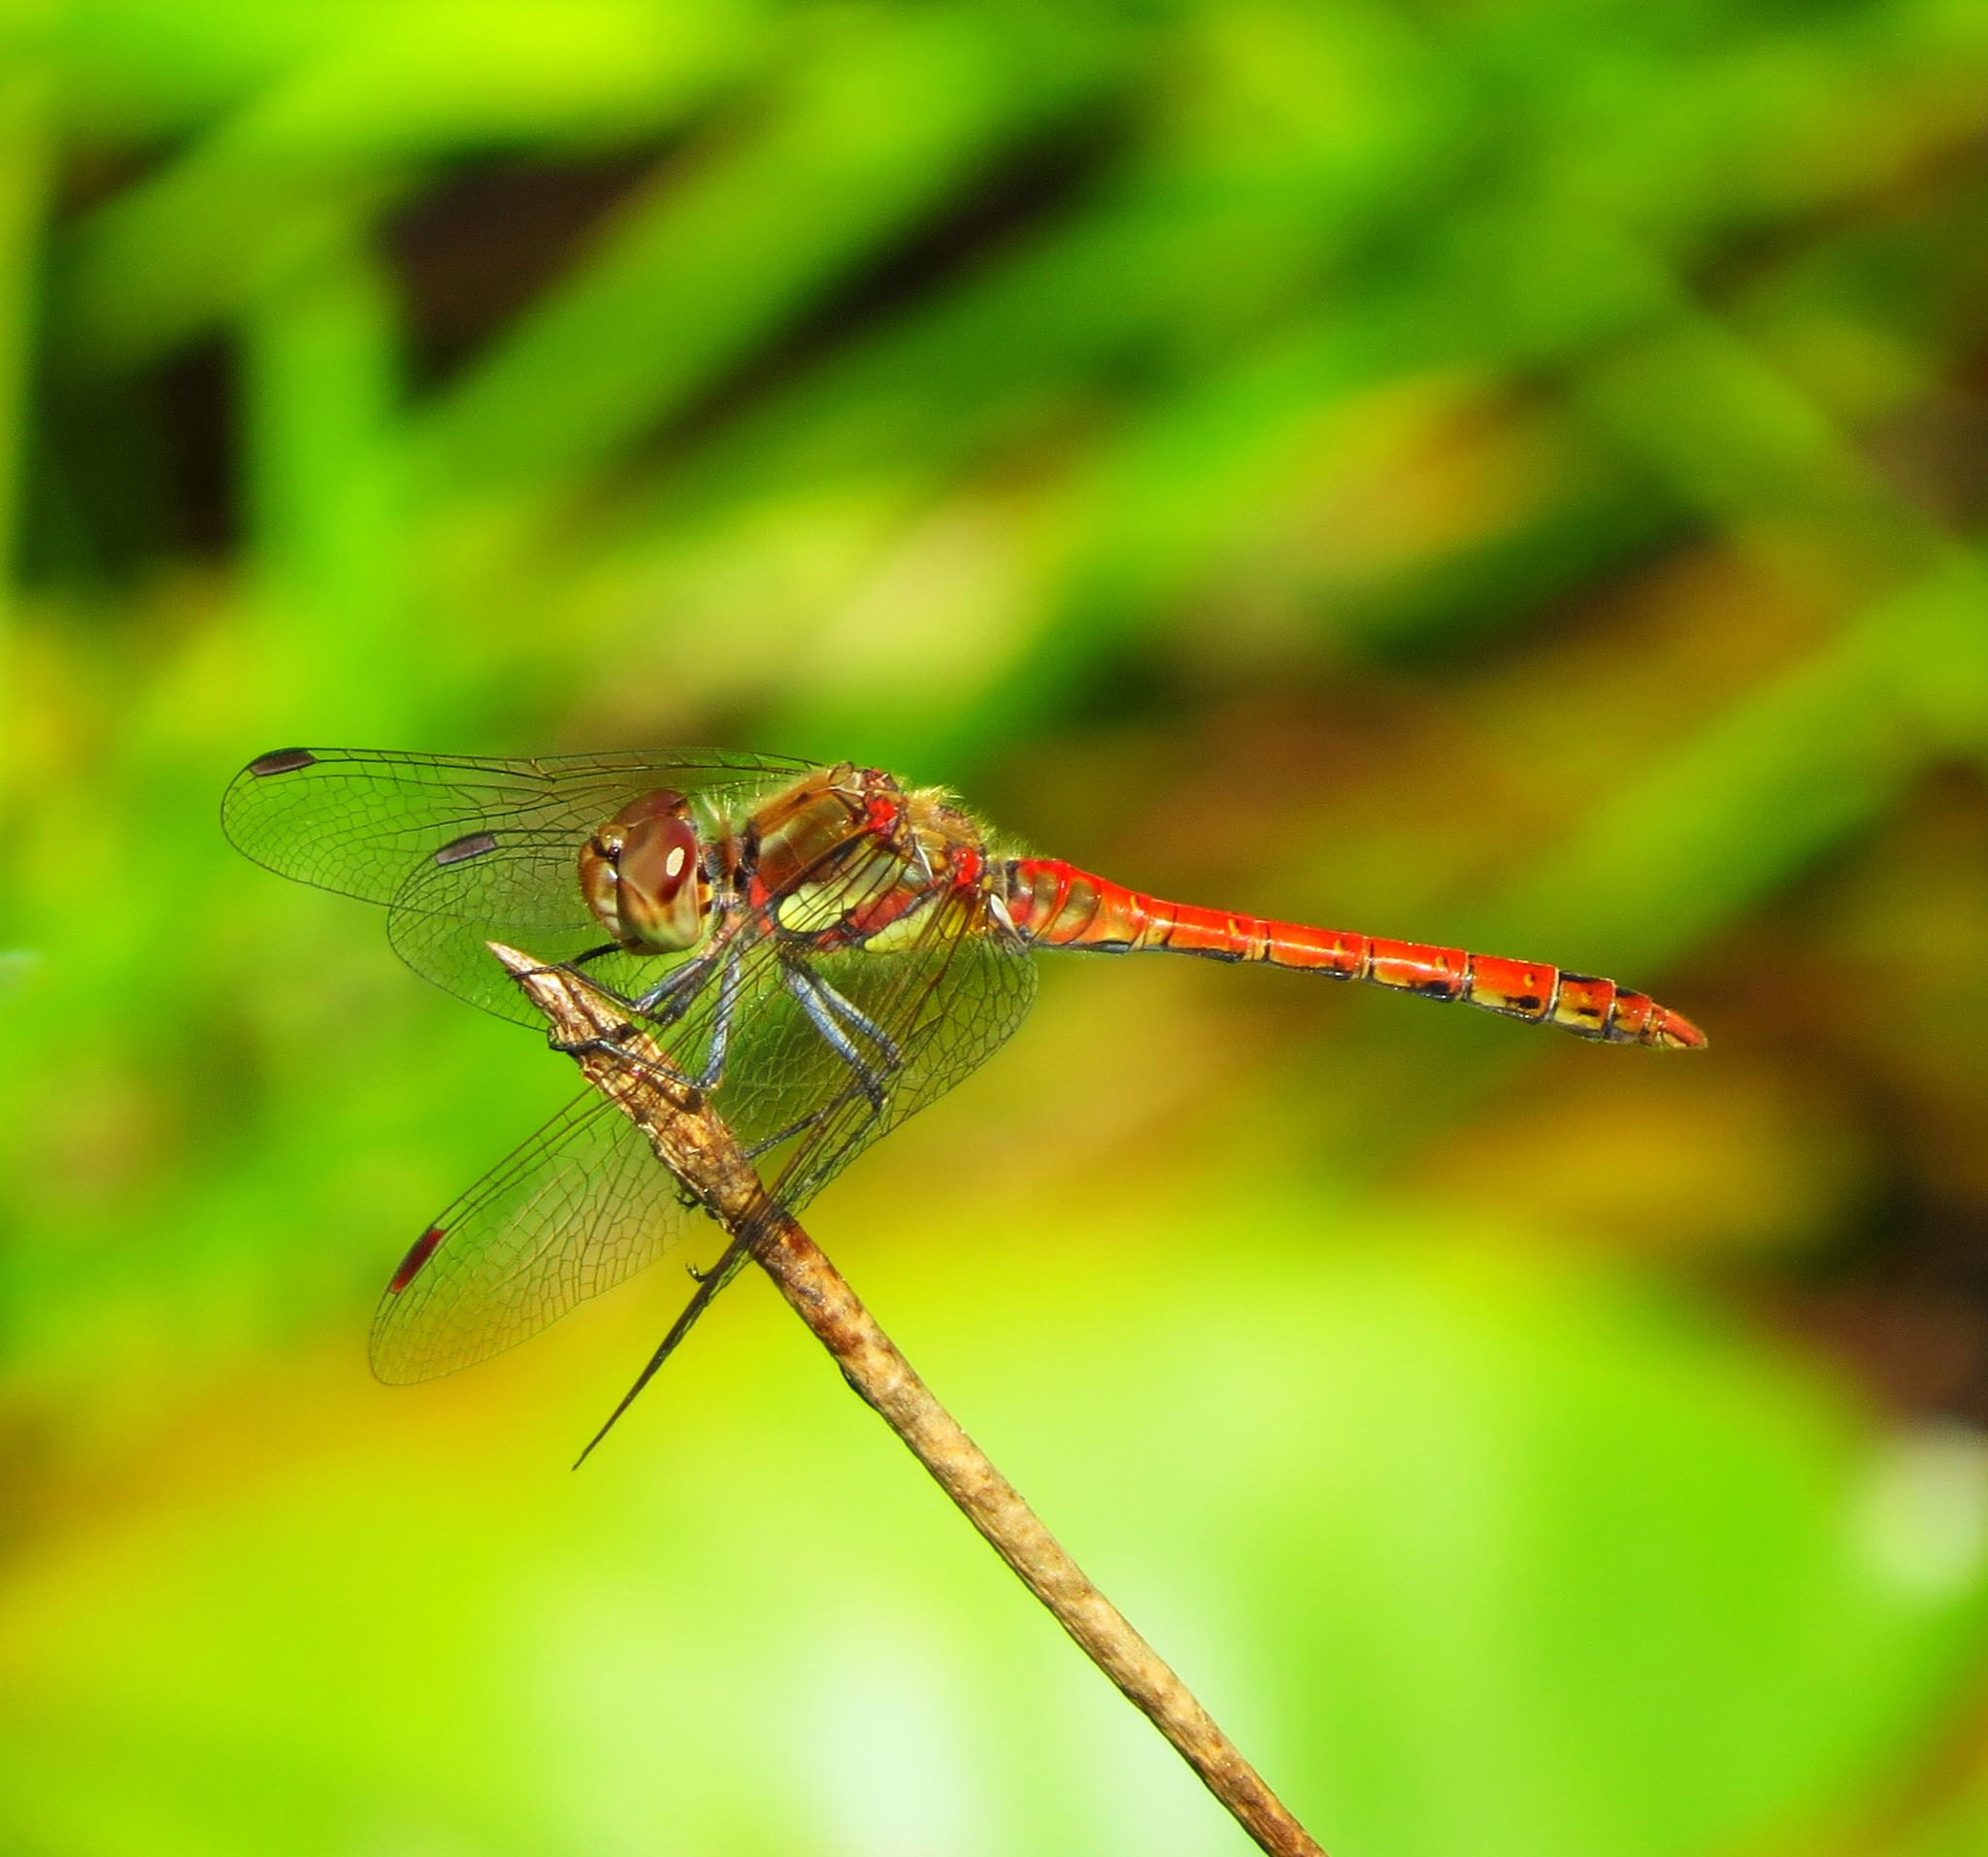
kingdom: Animalia
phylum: Arthropoda
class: Insecta
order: Odonata
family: Libellulidae
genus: Sympetrum
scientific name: Sympetrum striolatum
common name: Common darter
